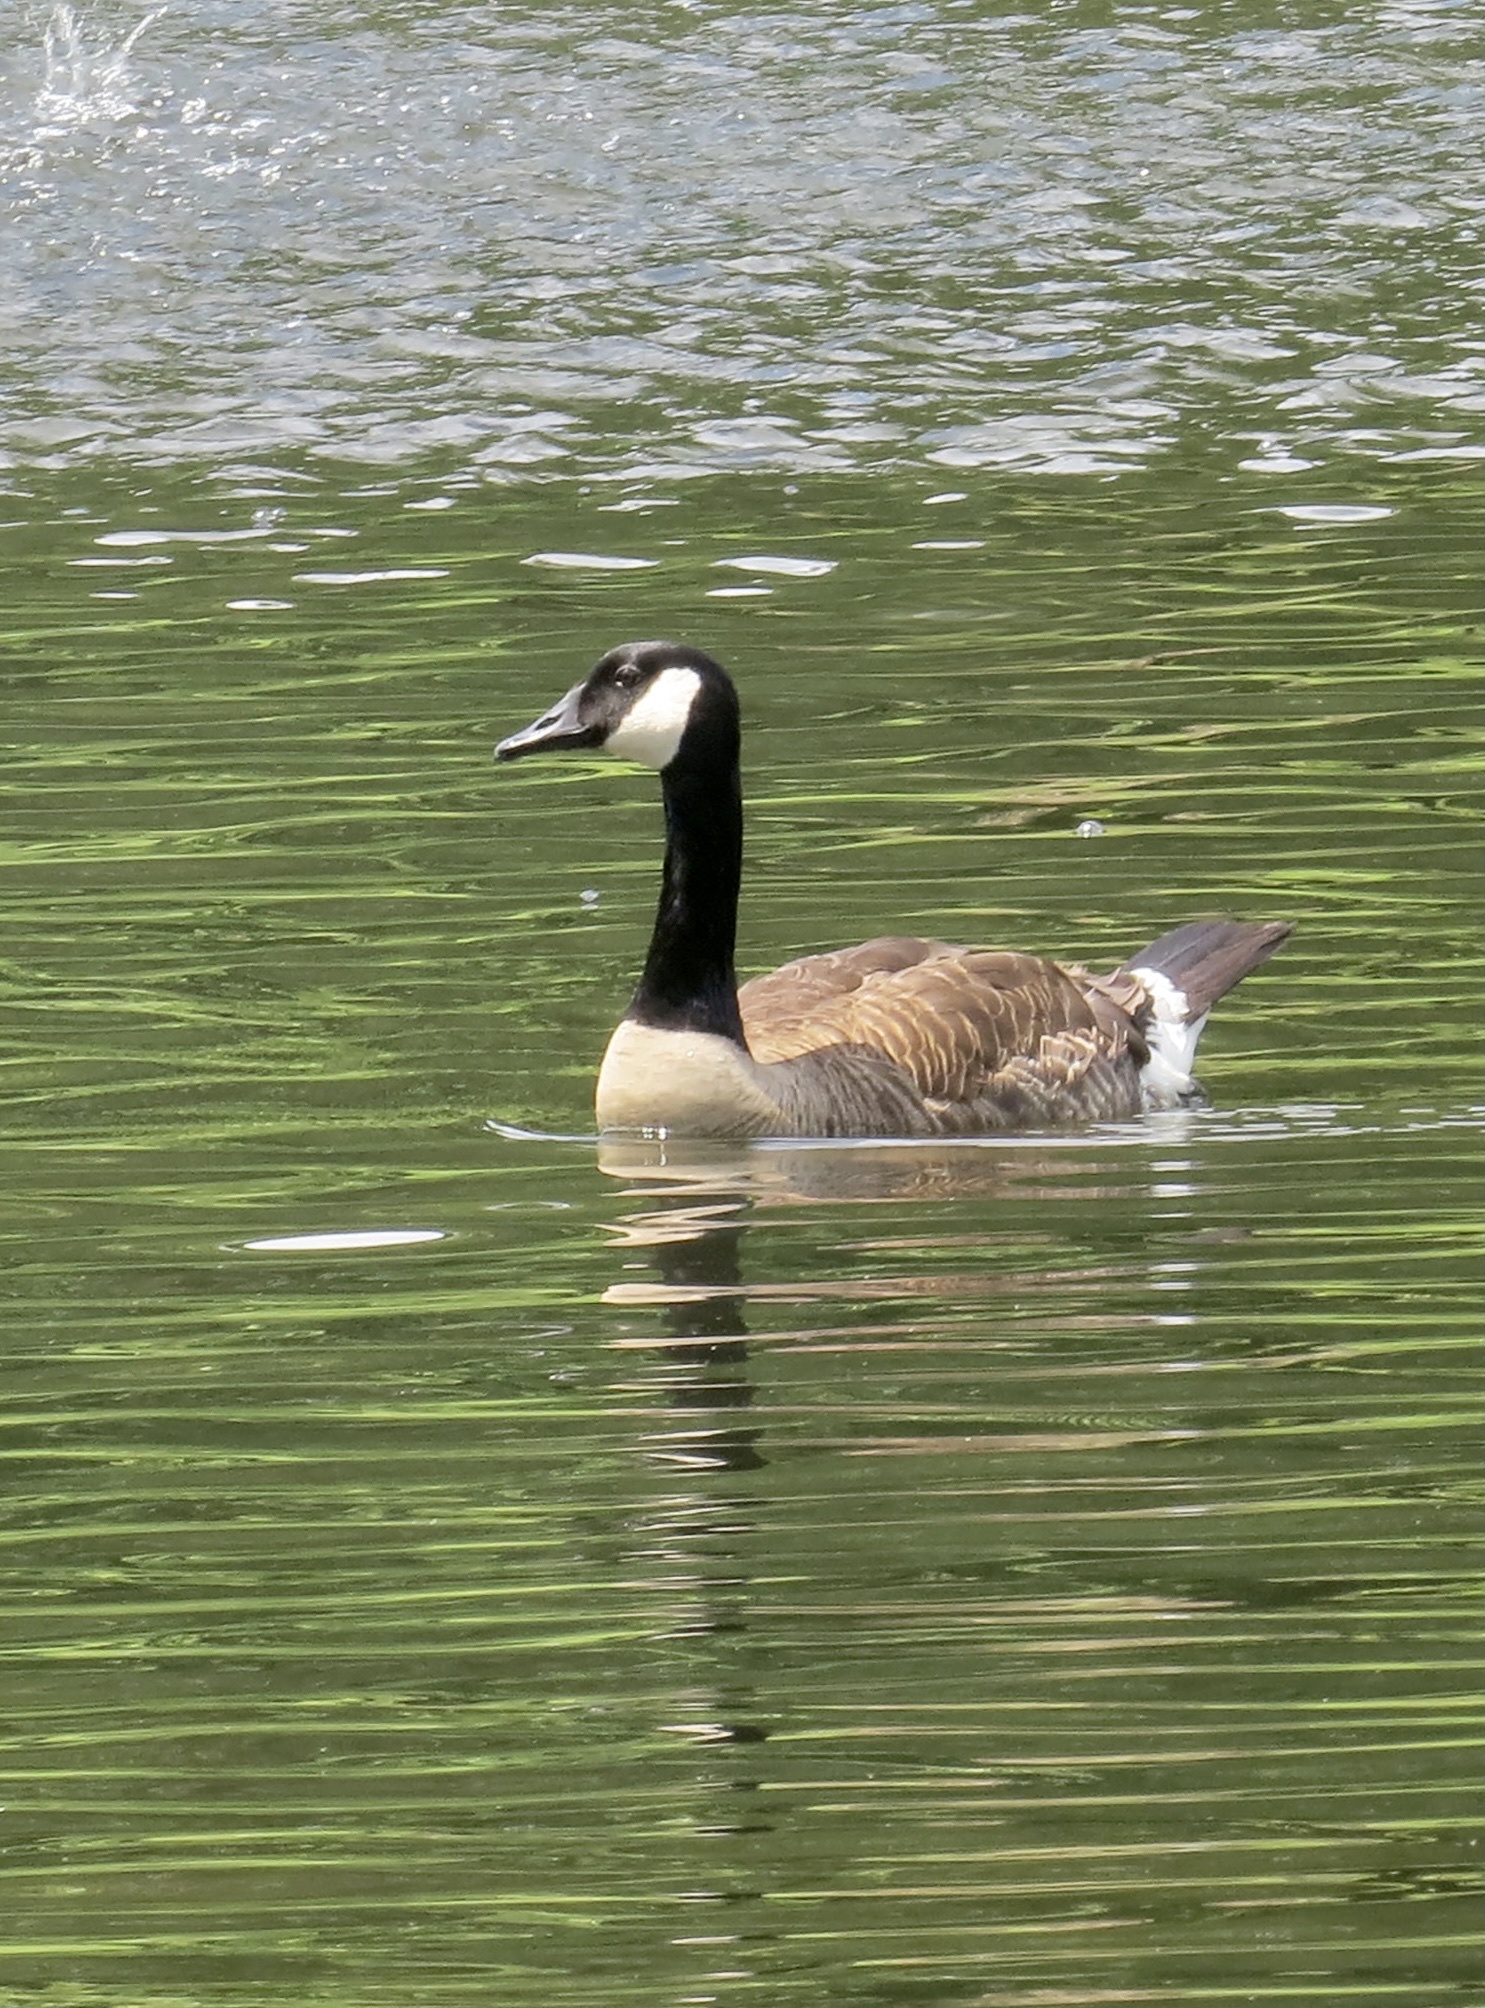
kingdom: Animalia
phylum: Chordata
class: Aves
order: Anseriformes
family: Anatidae
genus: Branta
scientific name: Branta canadensis
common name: Canada goose
